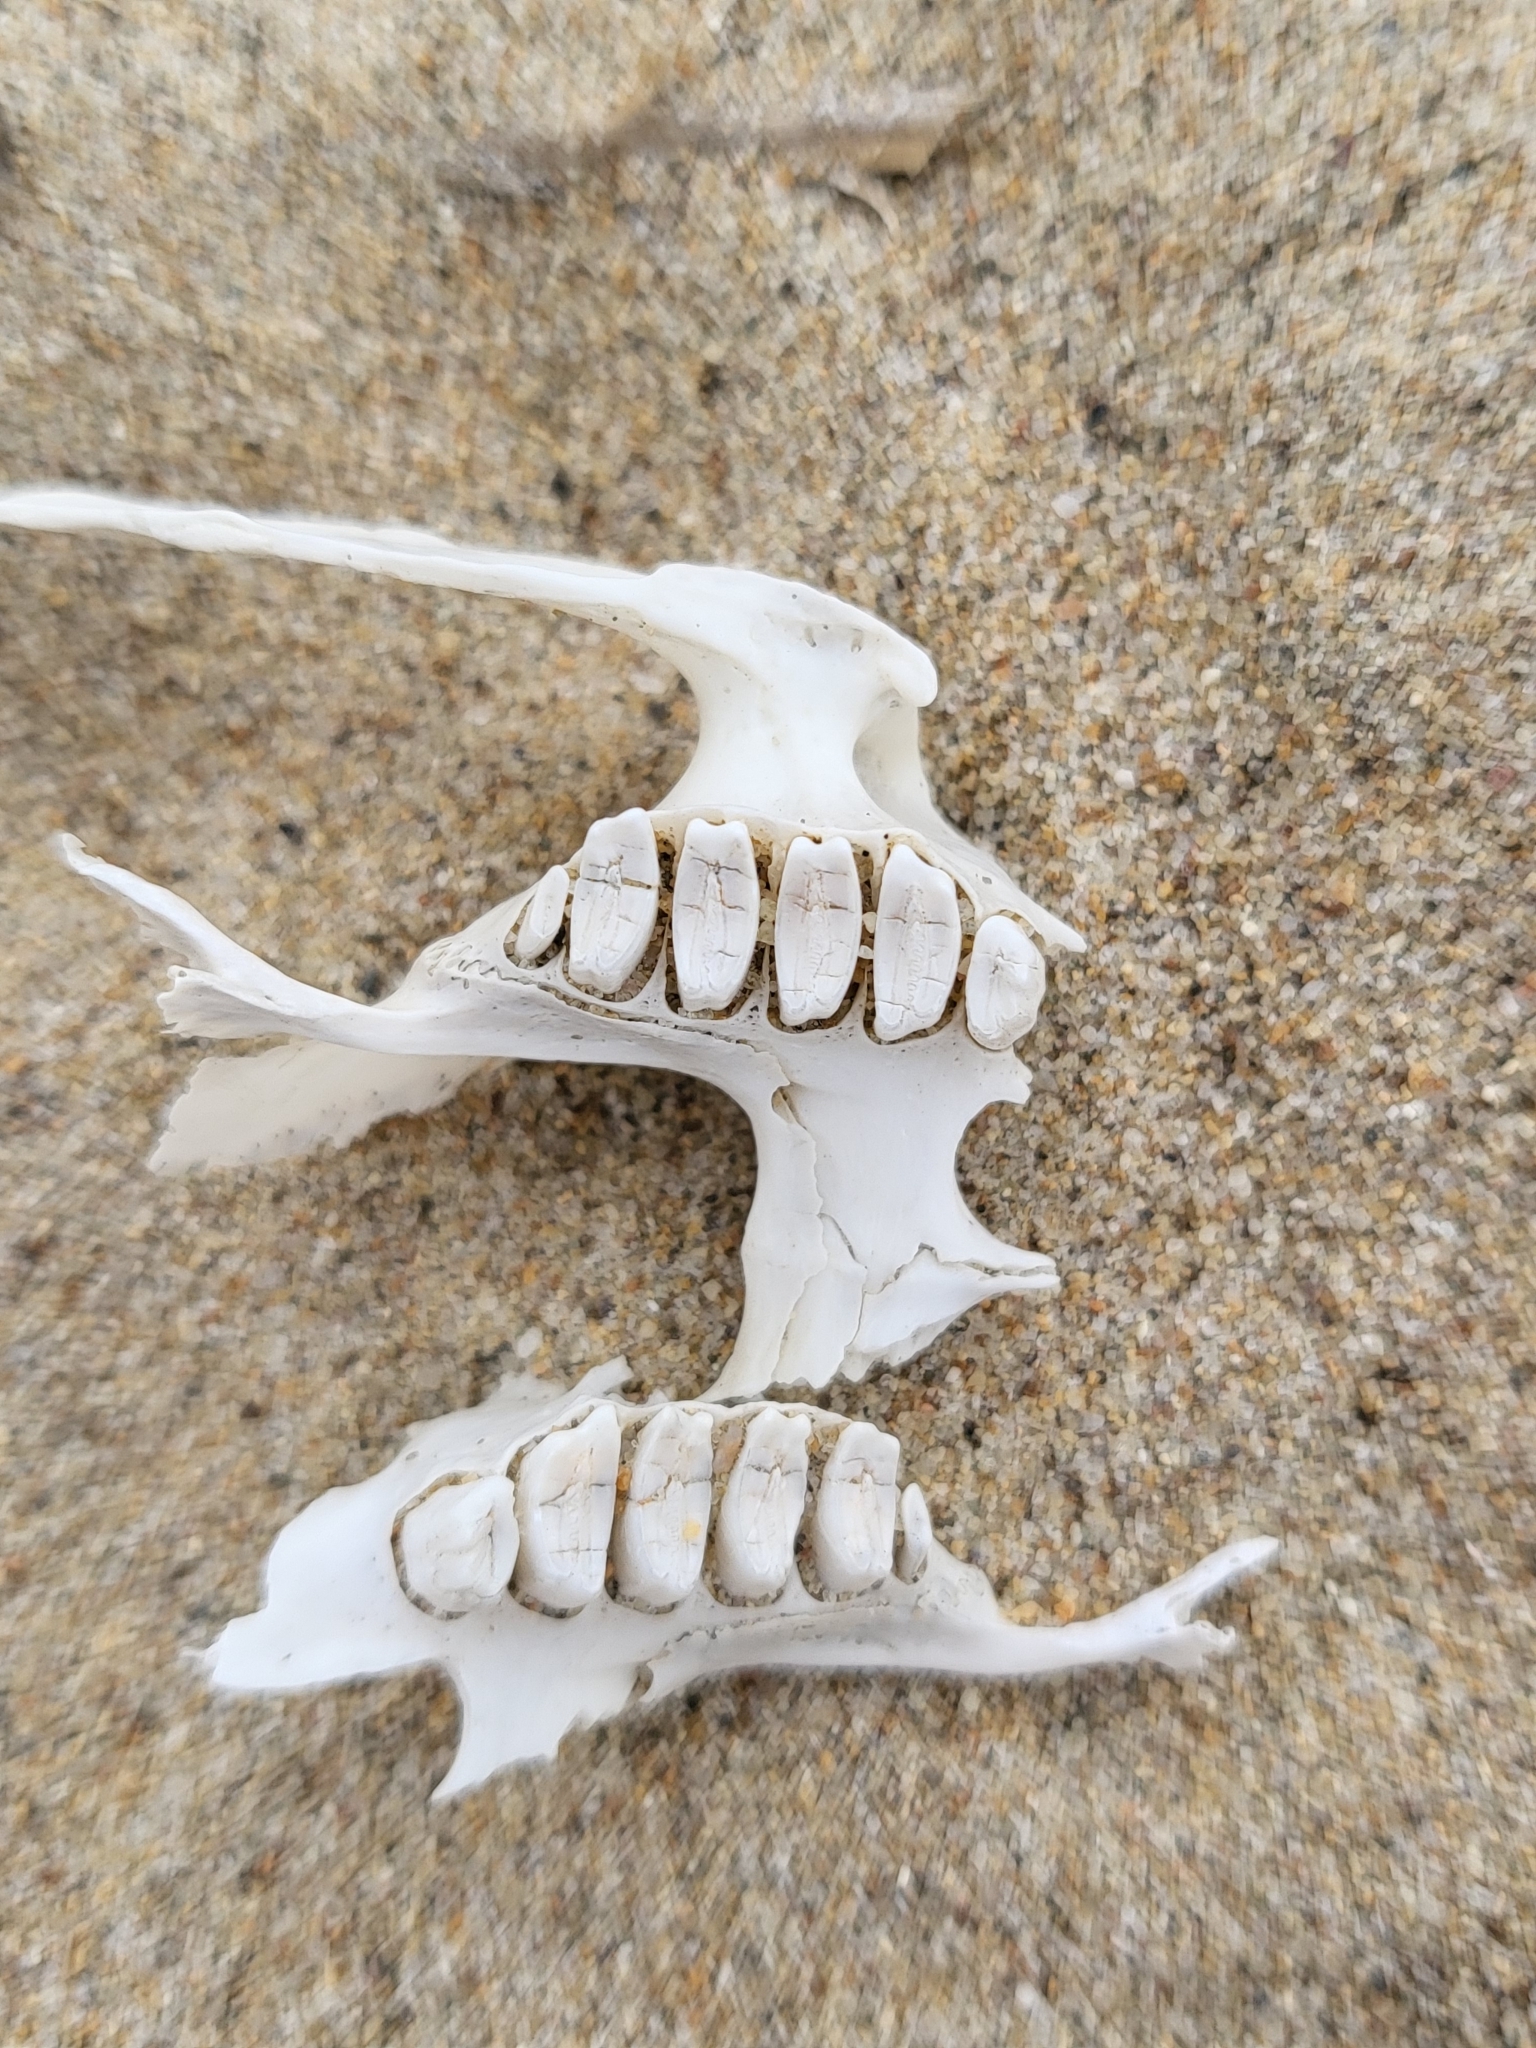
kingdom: Animalia
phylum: Chordata
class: Mammalia
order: Lagomorpha
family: Leporidae
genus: Lepus
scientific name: Lepus californicus
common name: Black-tailed jackrabbit
